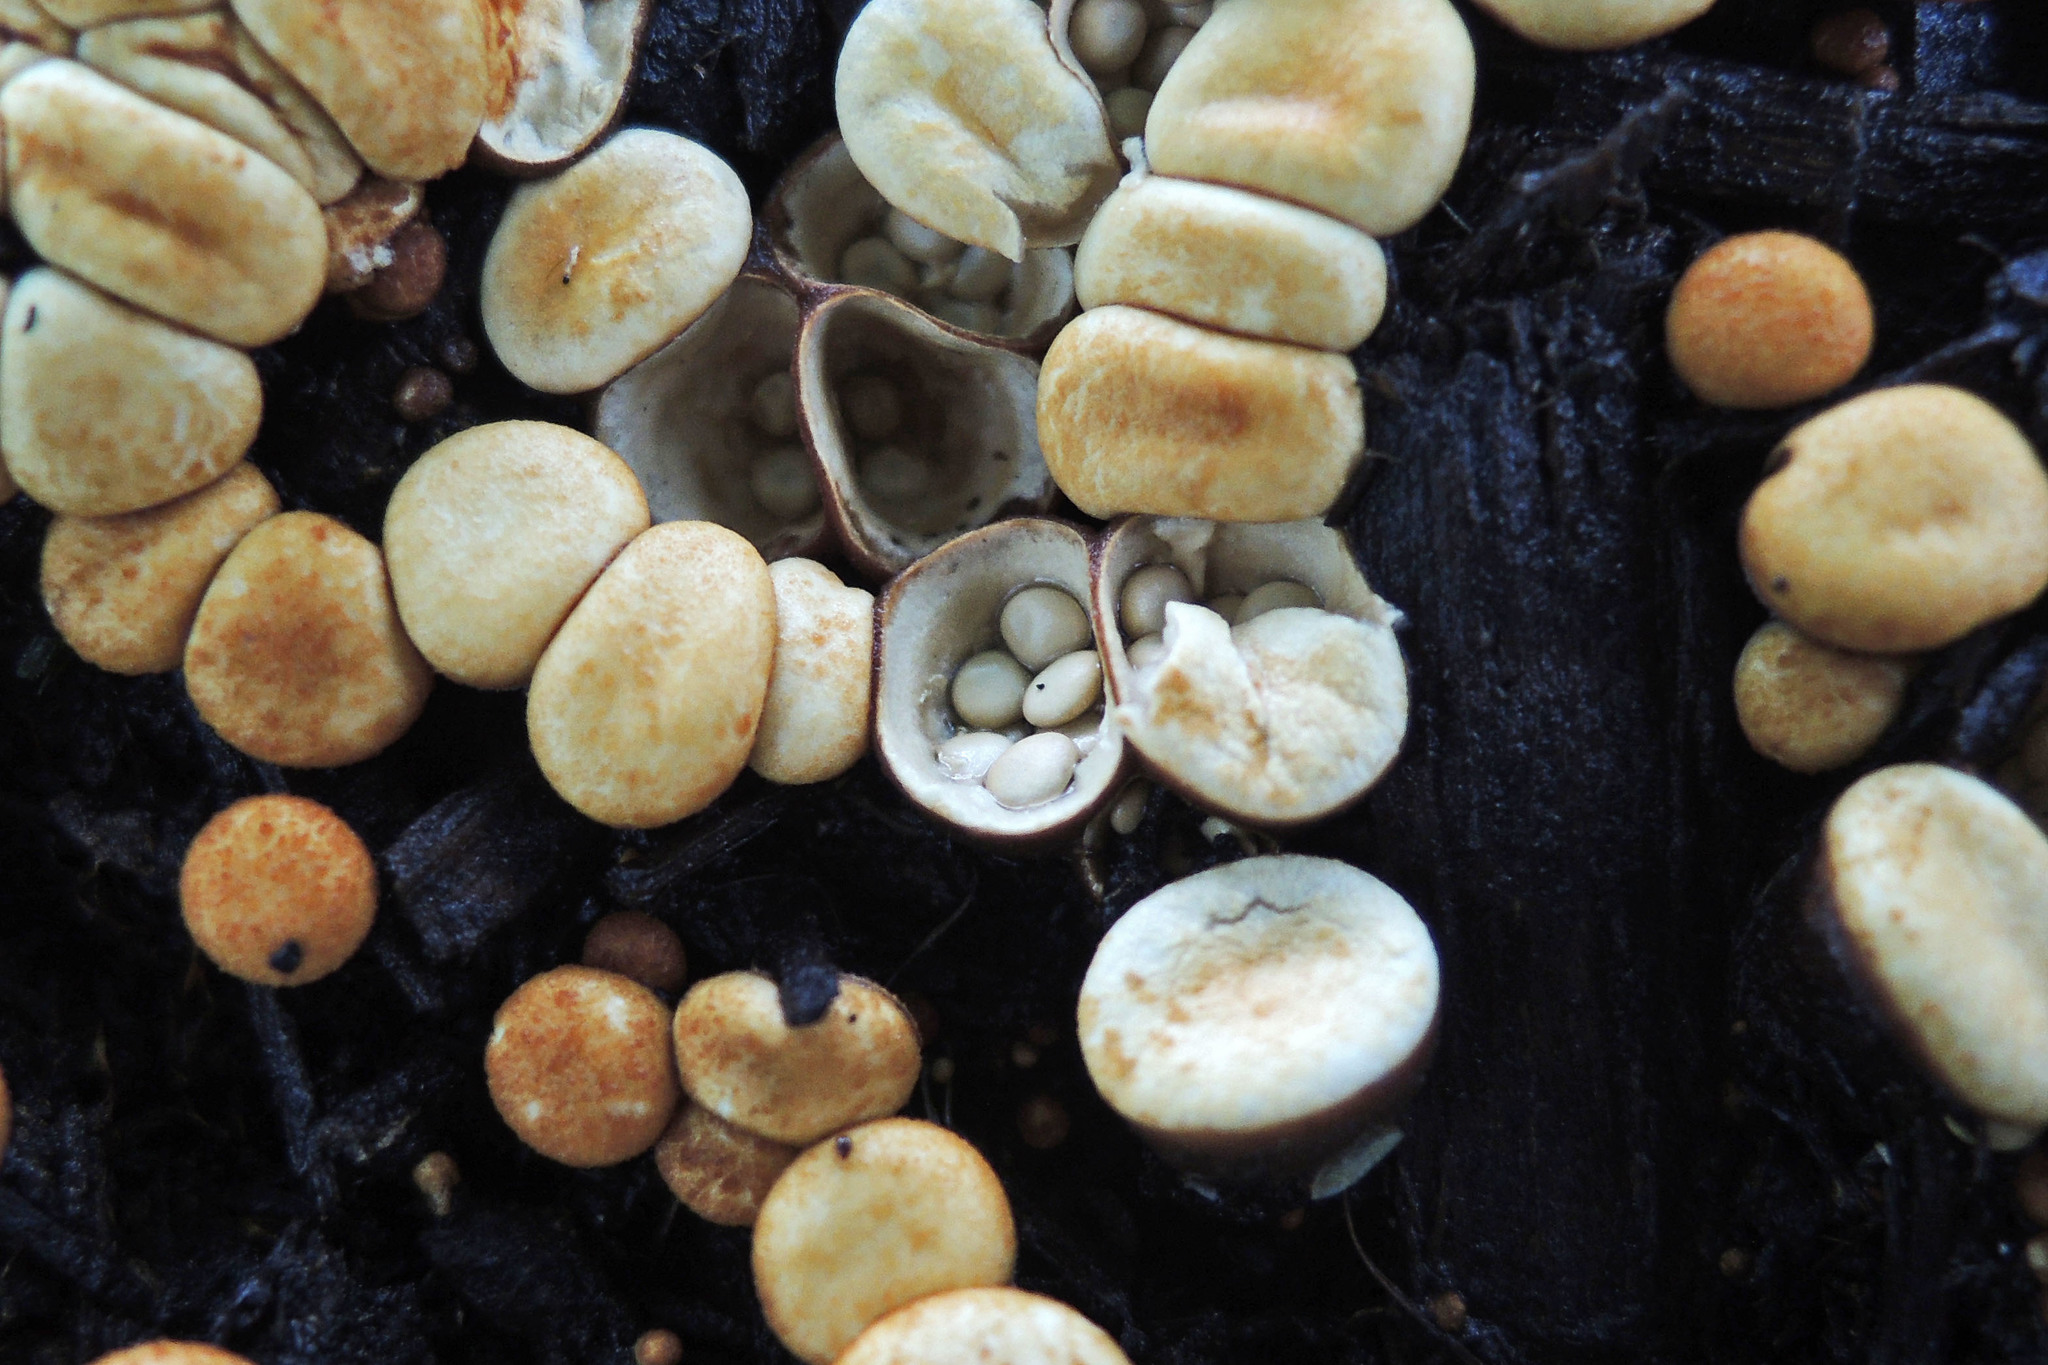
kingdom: Fungi
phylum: Basidiomycota
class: Agaricomycetes
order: Agaricales
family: Nidulariaceae
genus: Crucibulum
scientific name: Crucibulum laeve
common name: Common bird's nest
